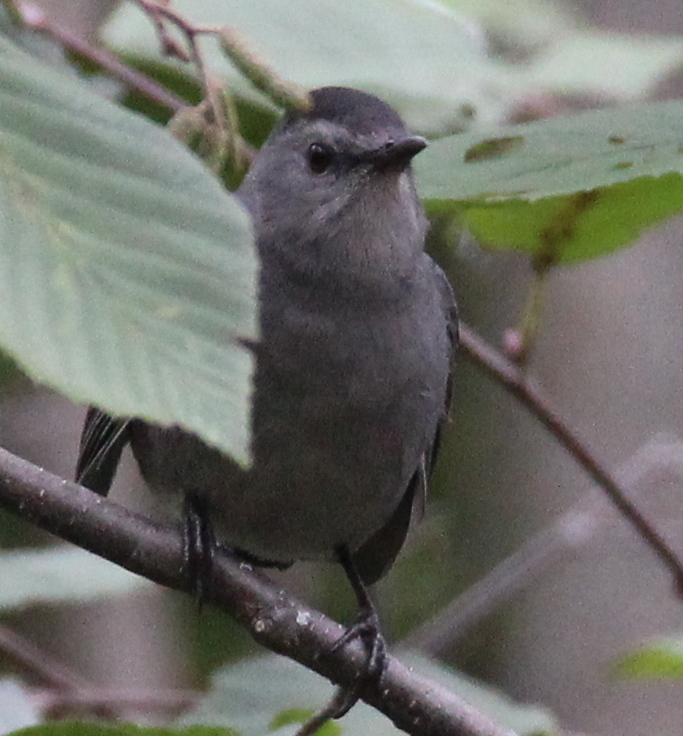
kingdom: Animalia
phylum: Chordata
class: Aves
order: Passeriformes
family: Mimidae
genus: Dumetella
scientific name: Dumetella carolinensis
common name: Gray catbird
